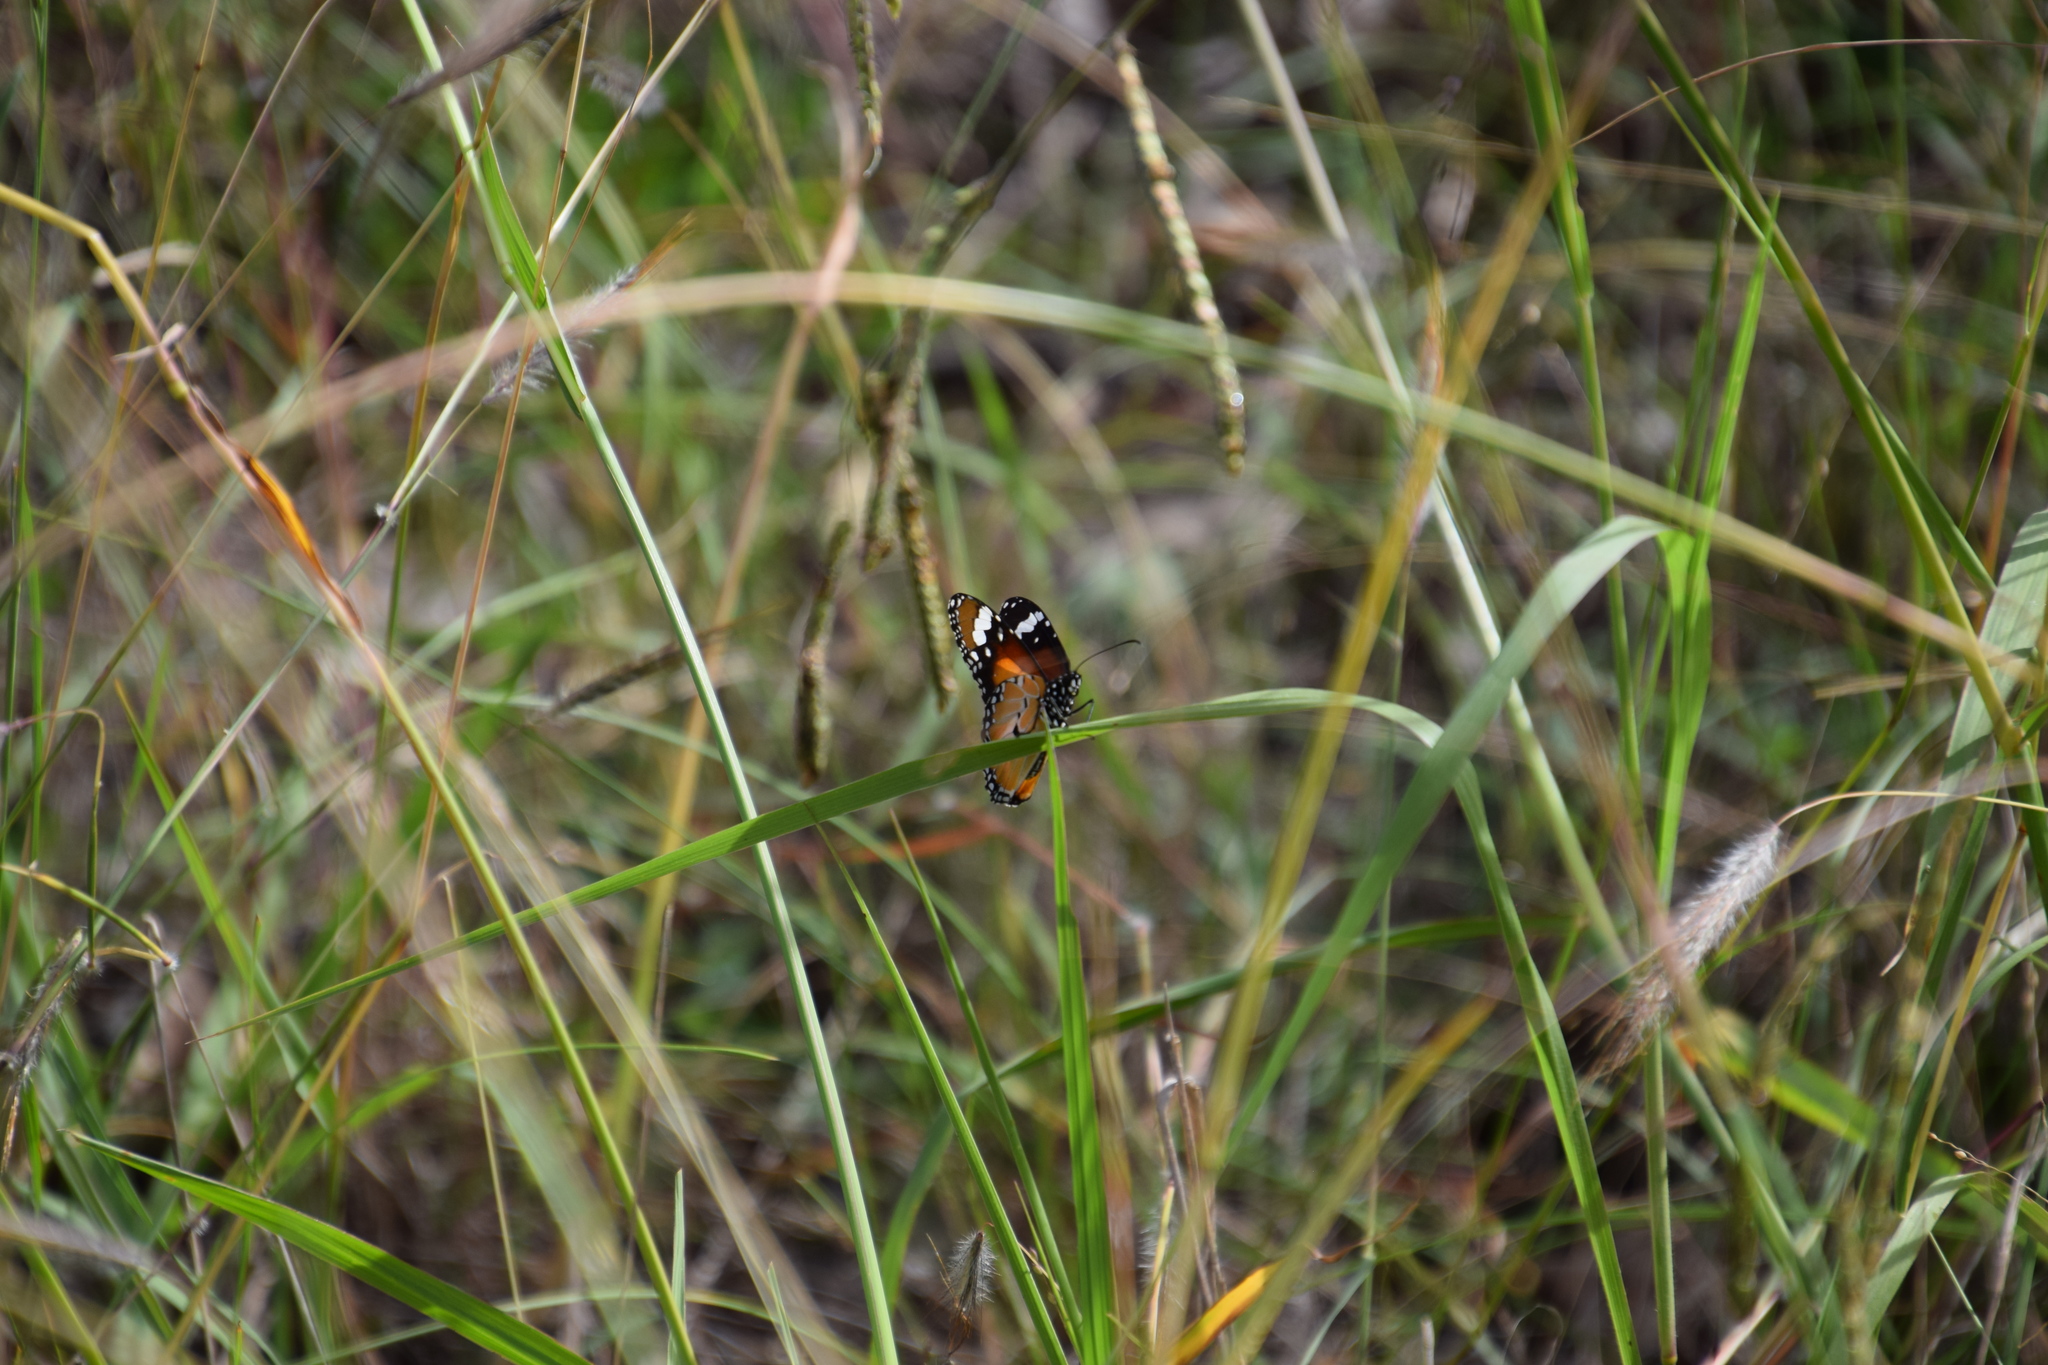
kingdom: Animalia
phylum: Arthropoda
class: Insecta
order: Lepidoptera
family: Nymphalidae
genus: Danaus
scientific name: Danaus chrysippus
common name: Plain tiger
